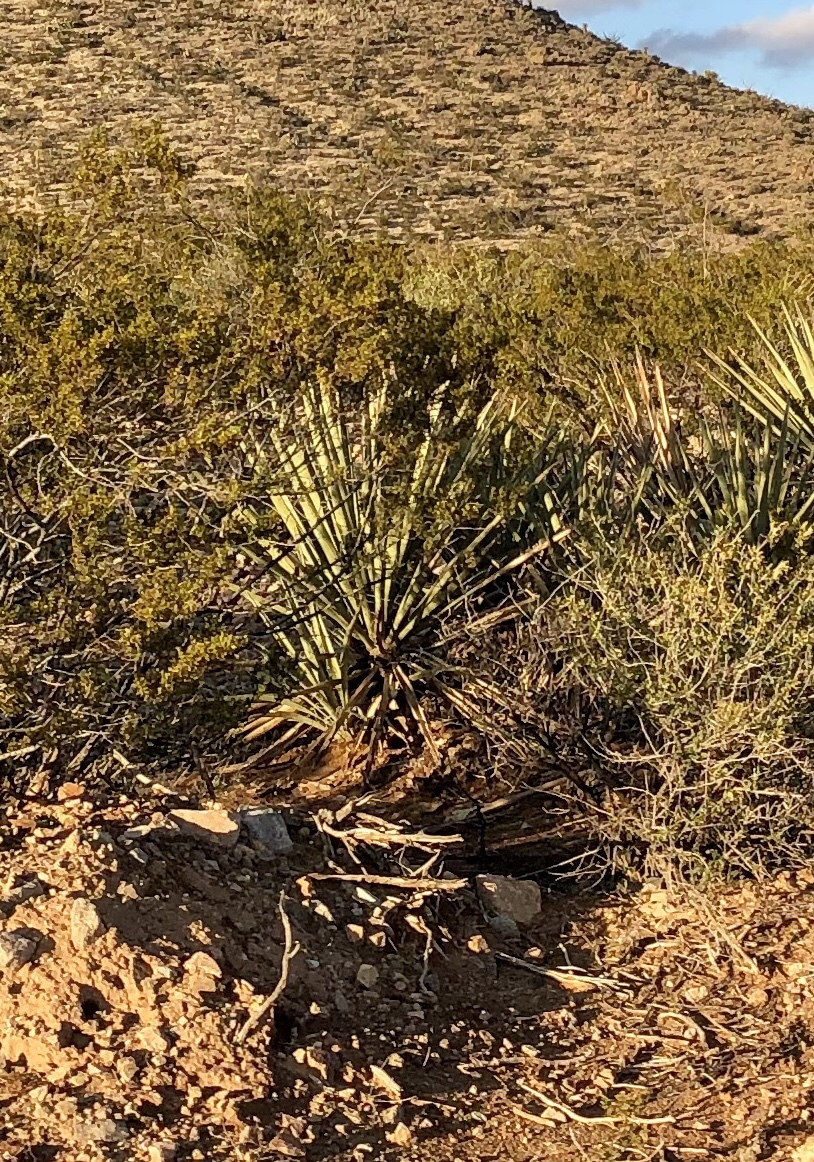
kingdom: Plantae
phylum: Tracheophyta
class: Liliopsida
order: Asparagales
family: Asparagaceae
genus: Yucca
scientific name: Yucca treculiana
